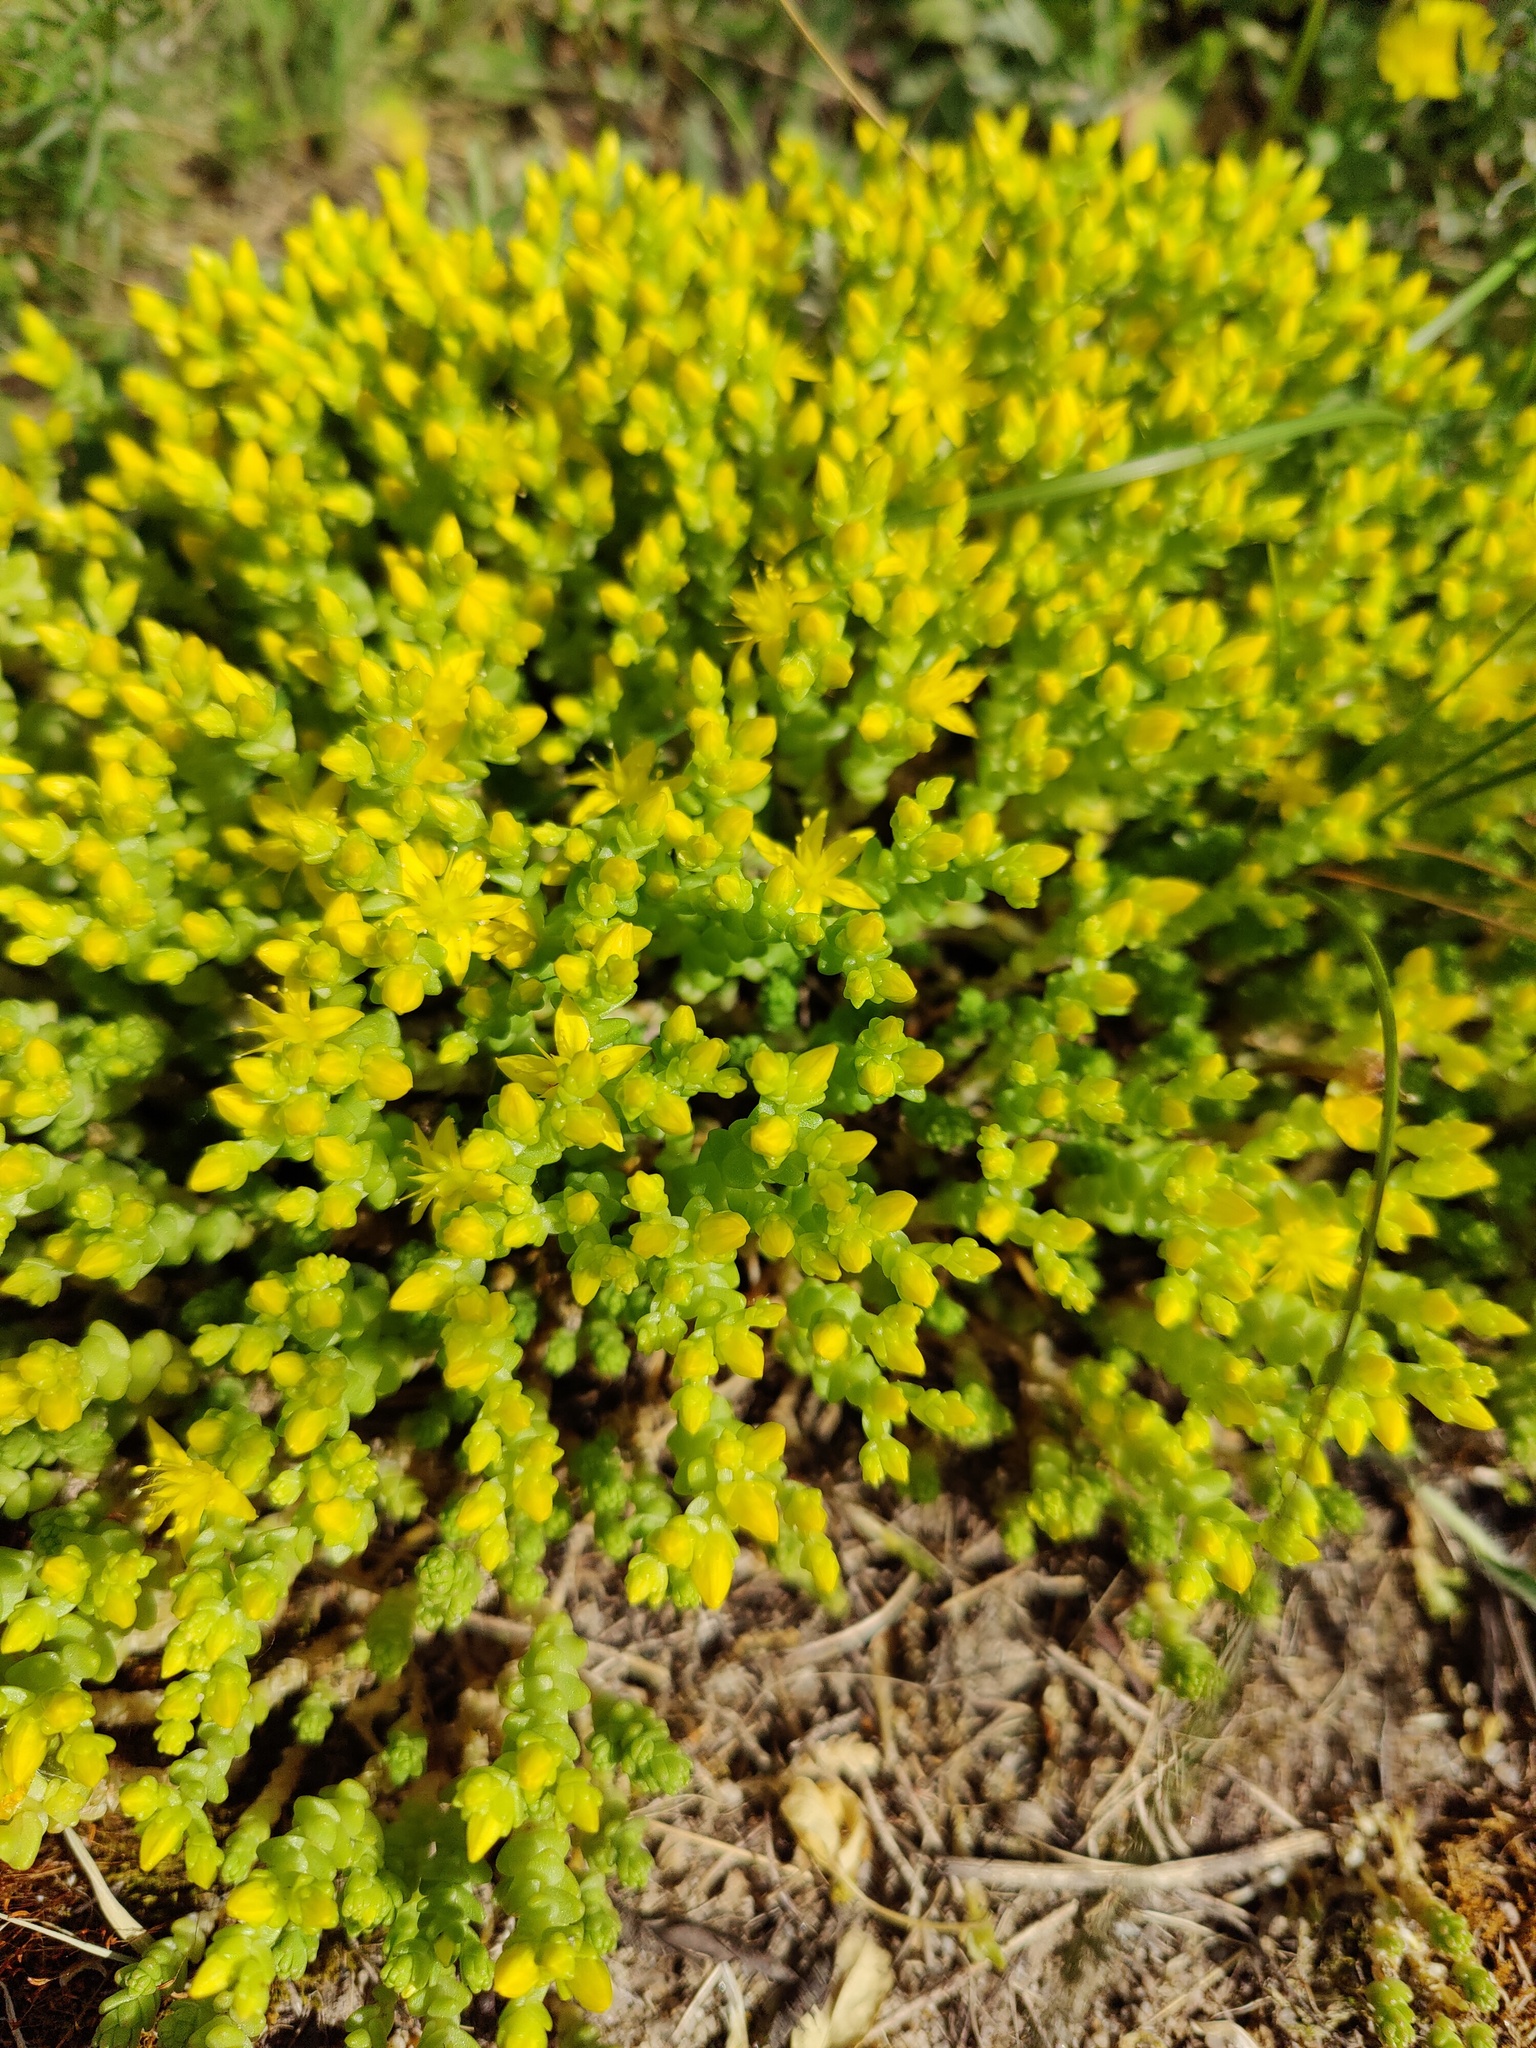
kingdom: Plantae
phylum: Tracheophyta
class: Magnoliopsida
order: Saxifragales
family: Crassulaceae
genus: Sedum
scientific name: Sedum acre
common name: Biting stonecrop
